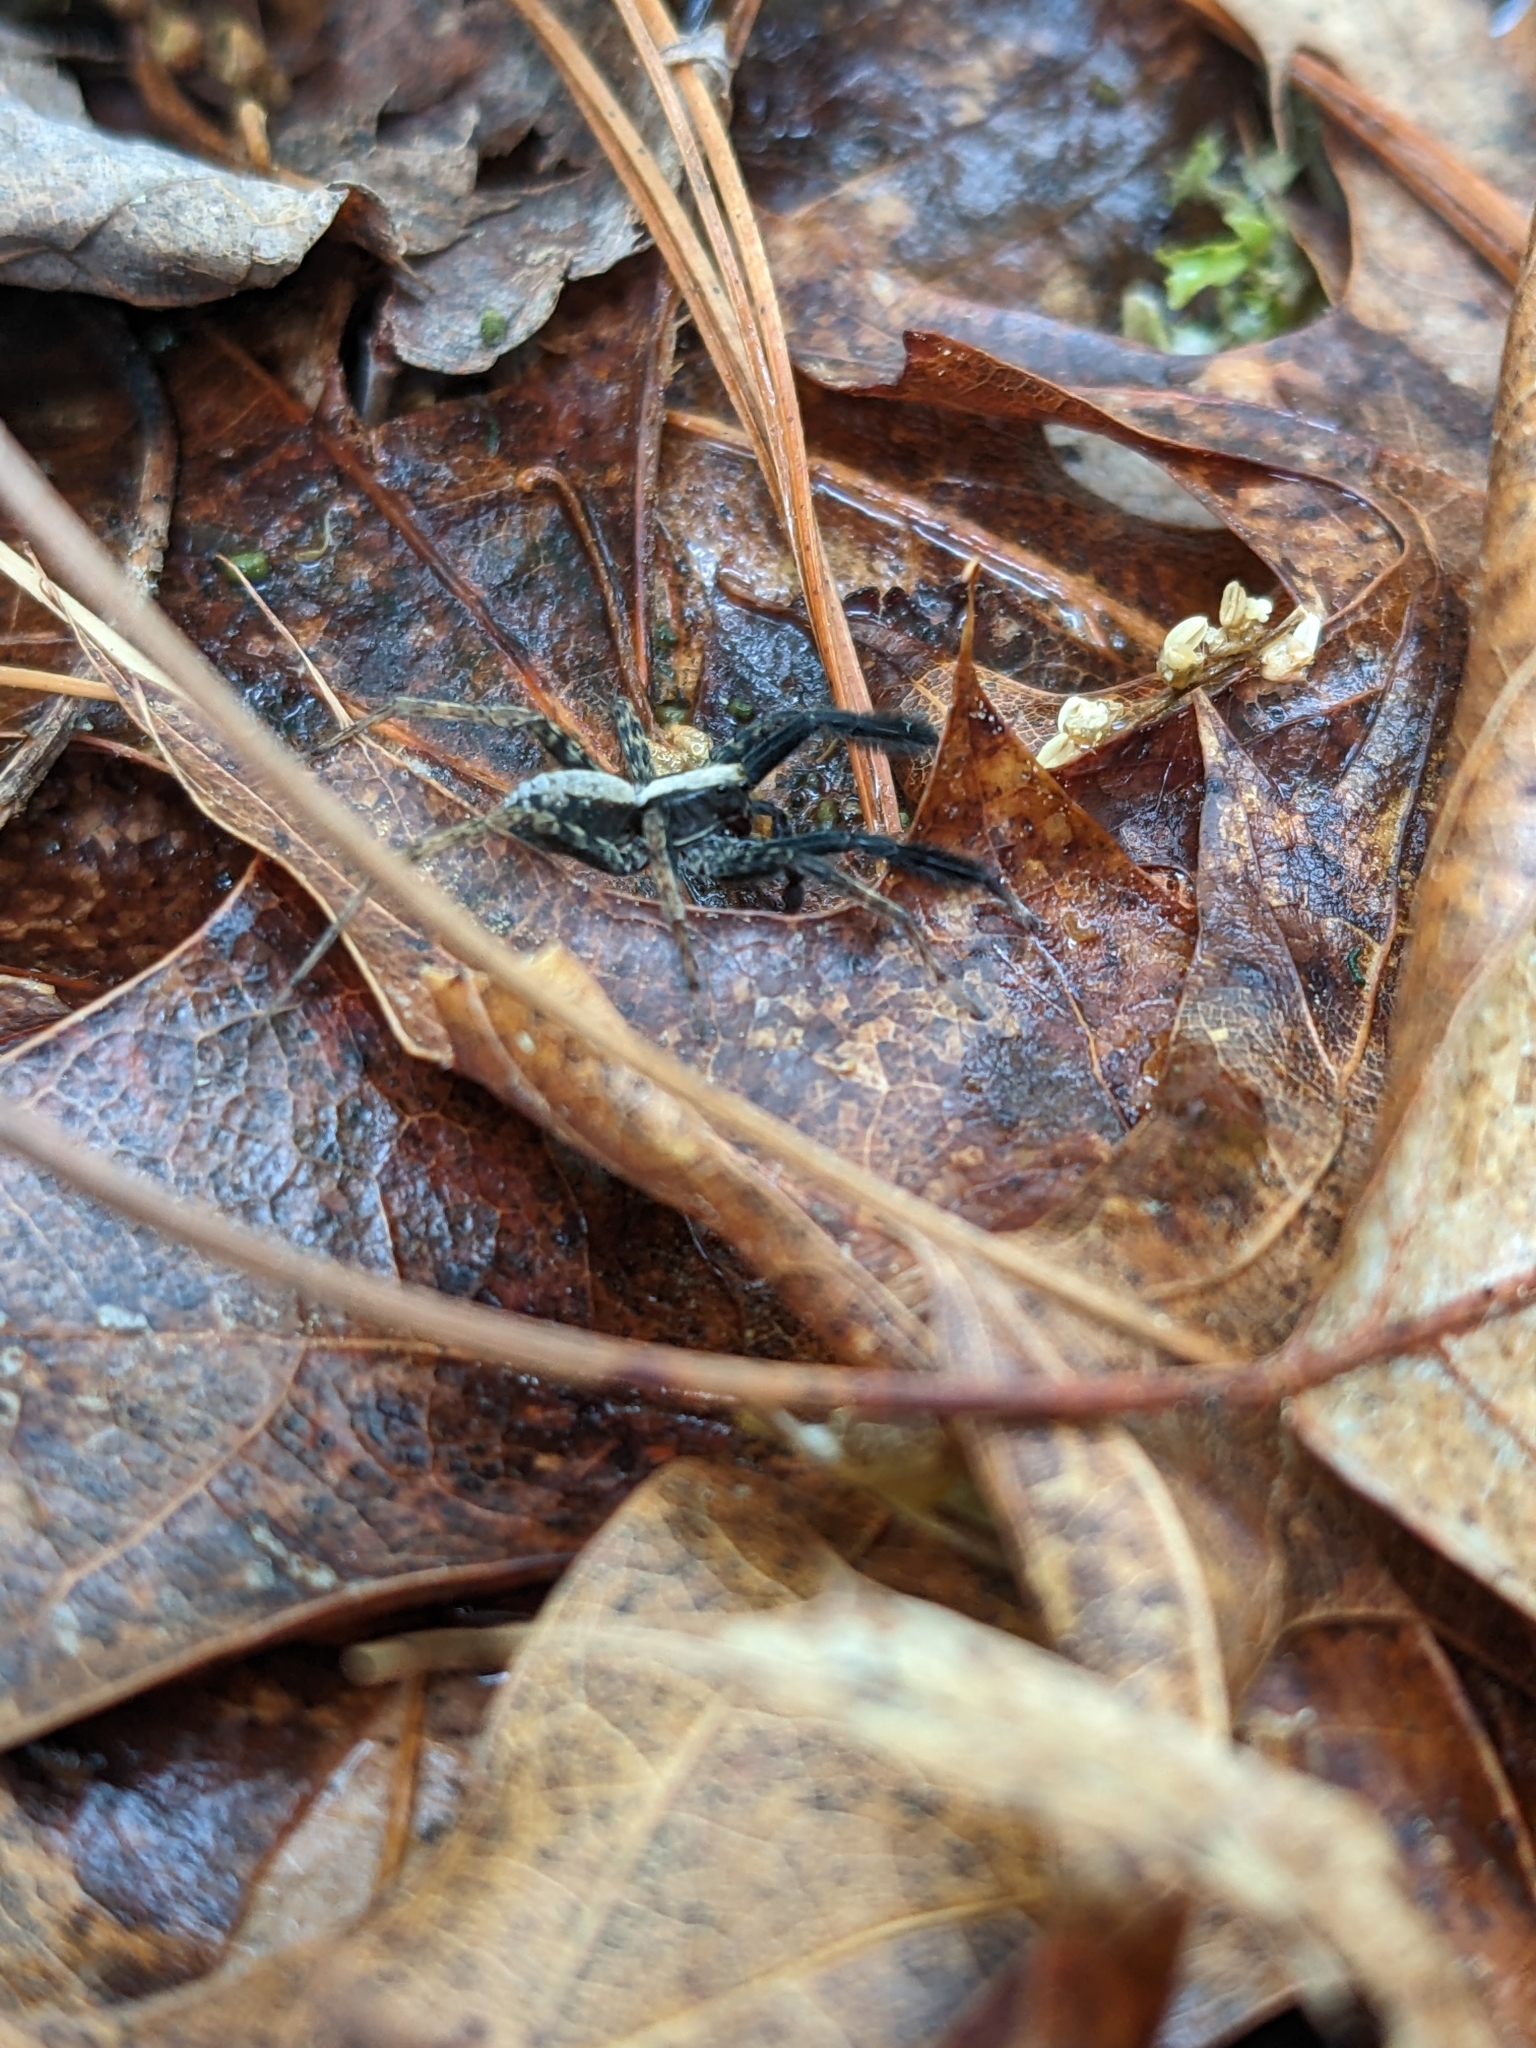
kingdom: Animalia
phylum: Arthropoda
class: Arachnida
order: Araneae
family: Lycosidae
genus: Schizocosa
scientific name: Schizocosa
